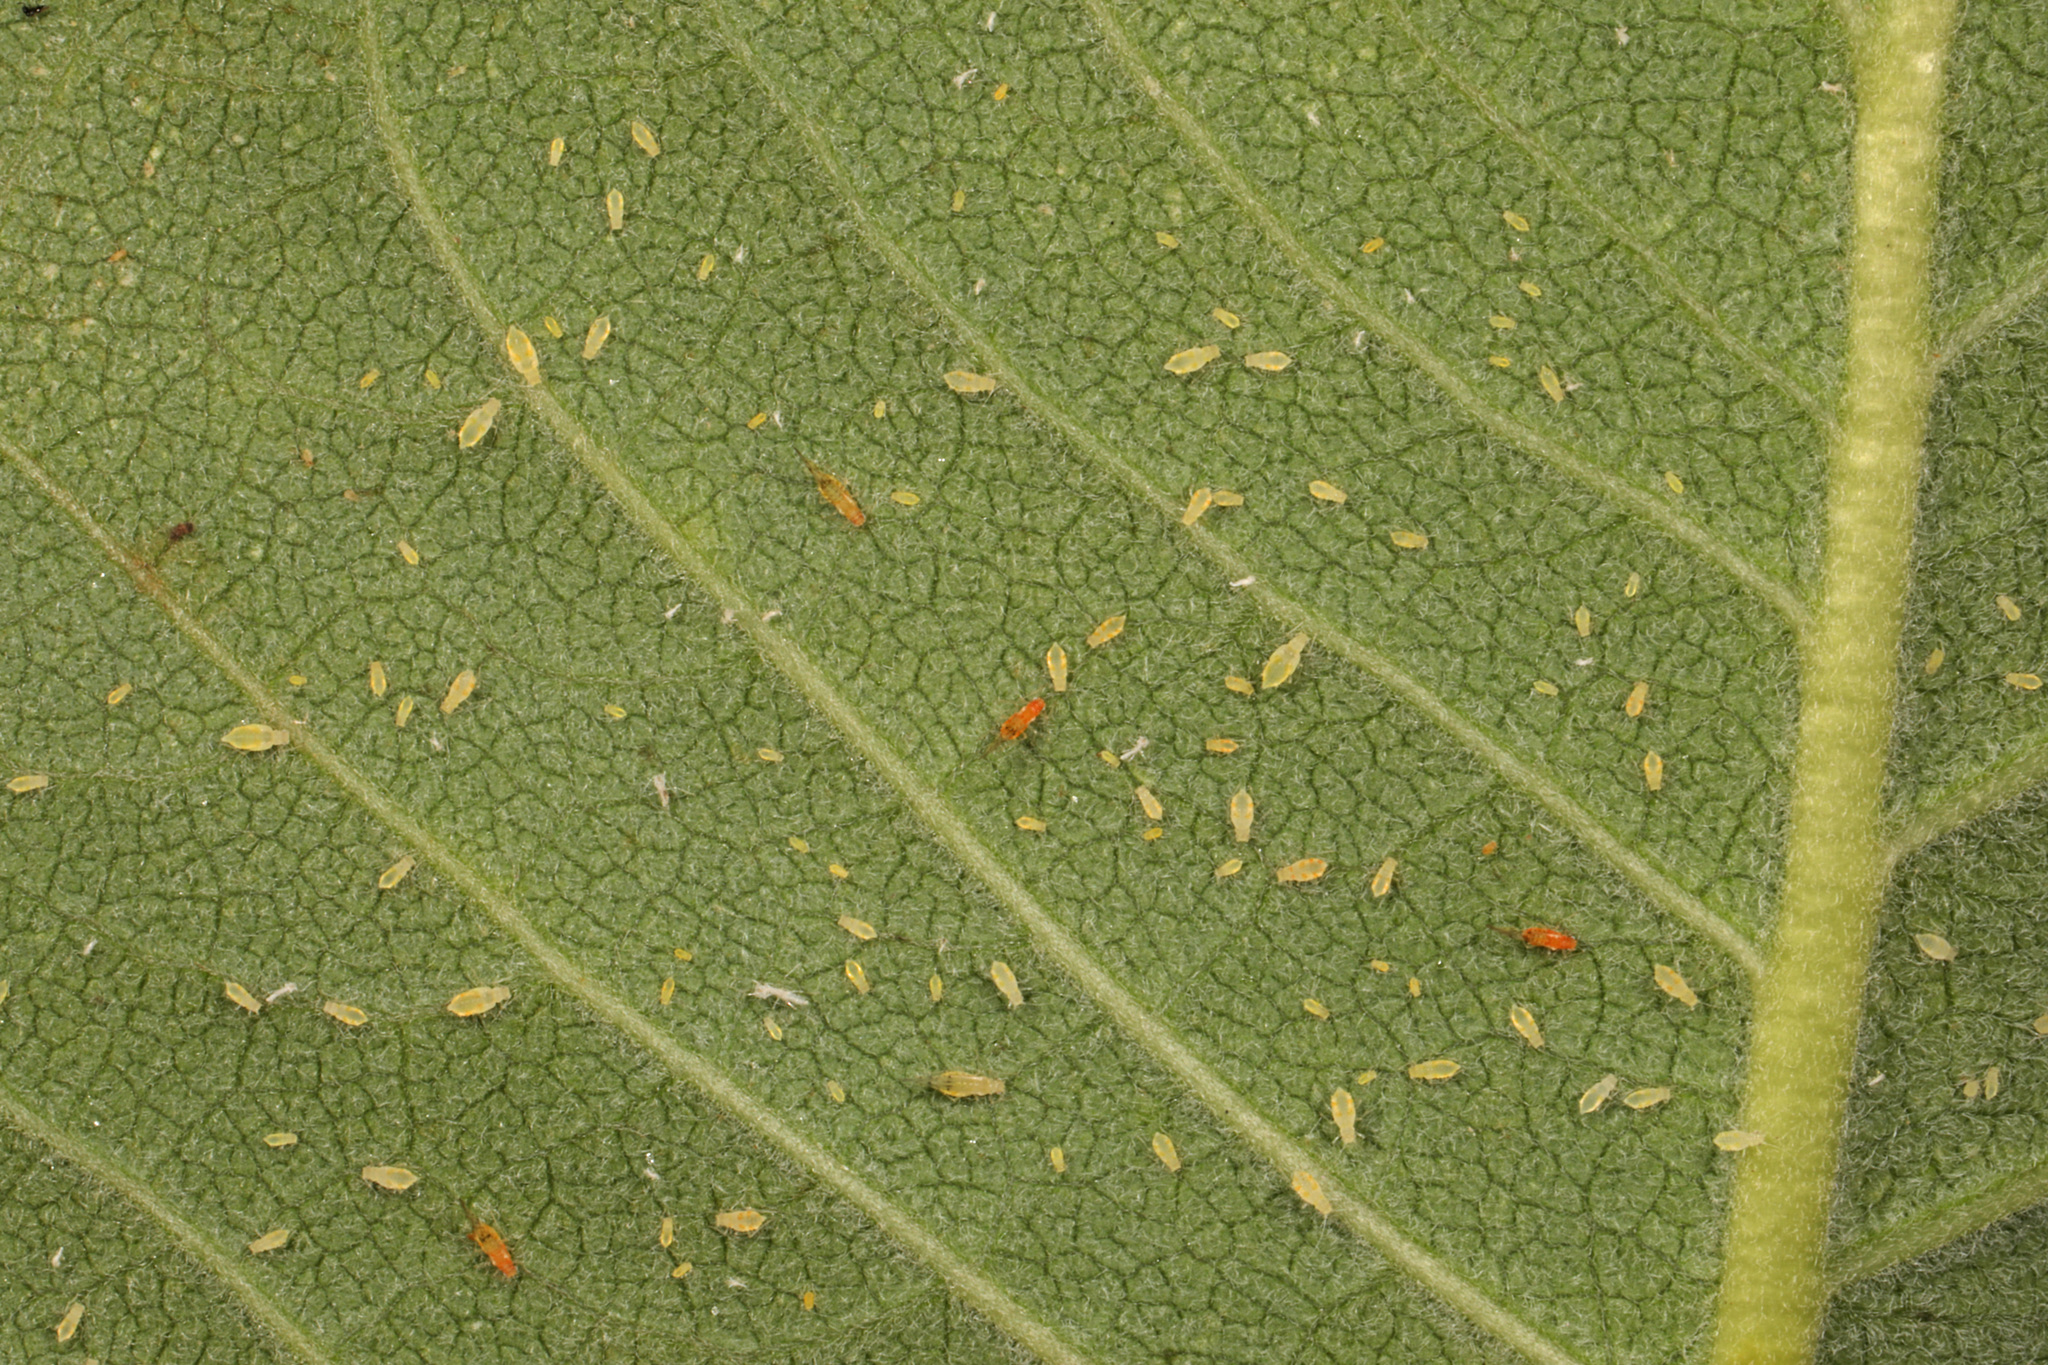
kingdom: Animalia
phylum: Arthropoda
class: Insecta
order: Hemiptera
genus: Neomyzocallis
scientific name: Neomyzocallis
